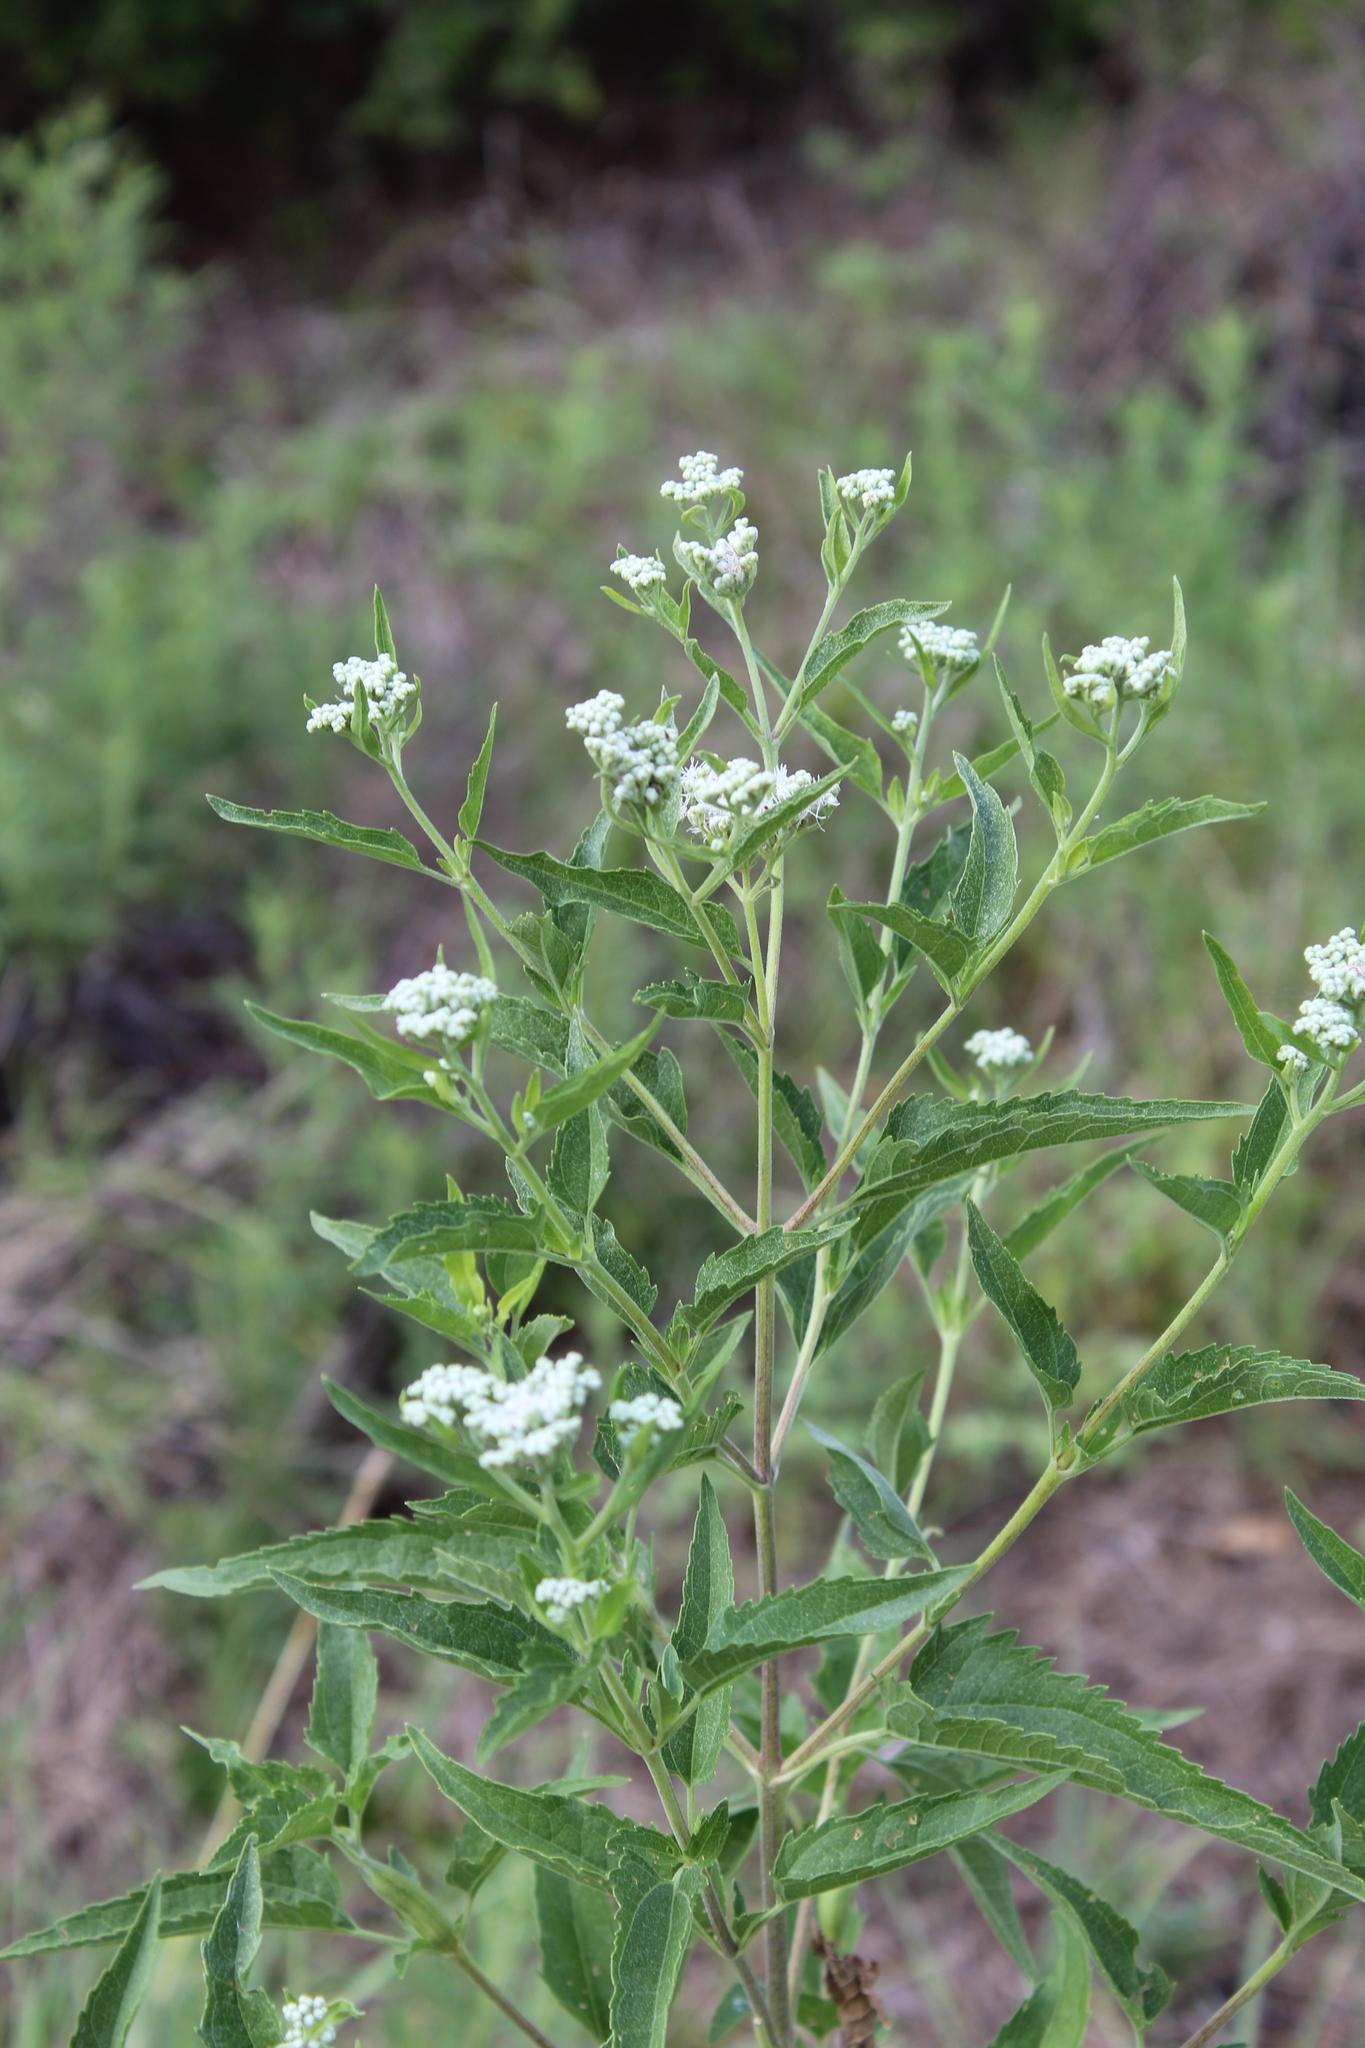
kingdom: Plantae
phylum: Tracheophyta
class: Magnoliopsida
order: Asterales
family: Asteraceae
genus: Eupatorium
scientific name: Eupatorium serotinum
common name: Late boneset
